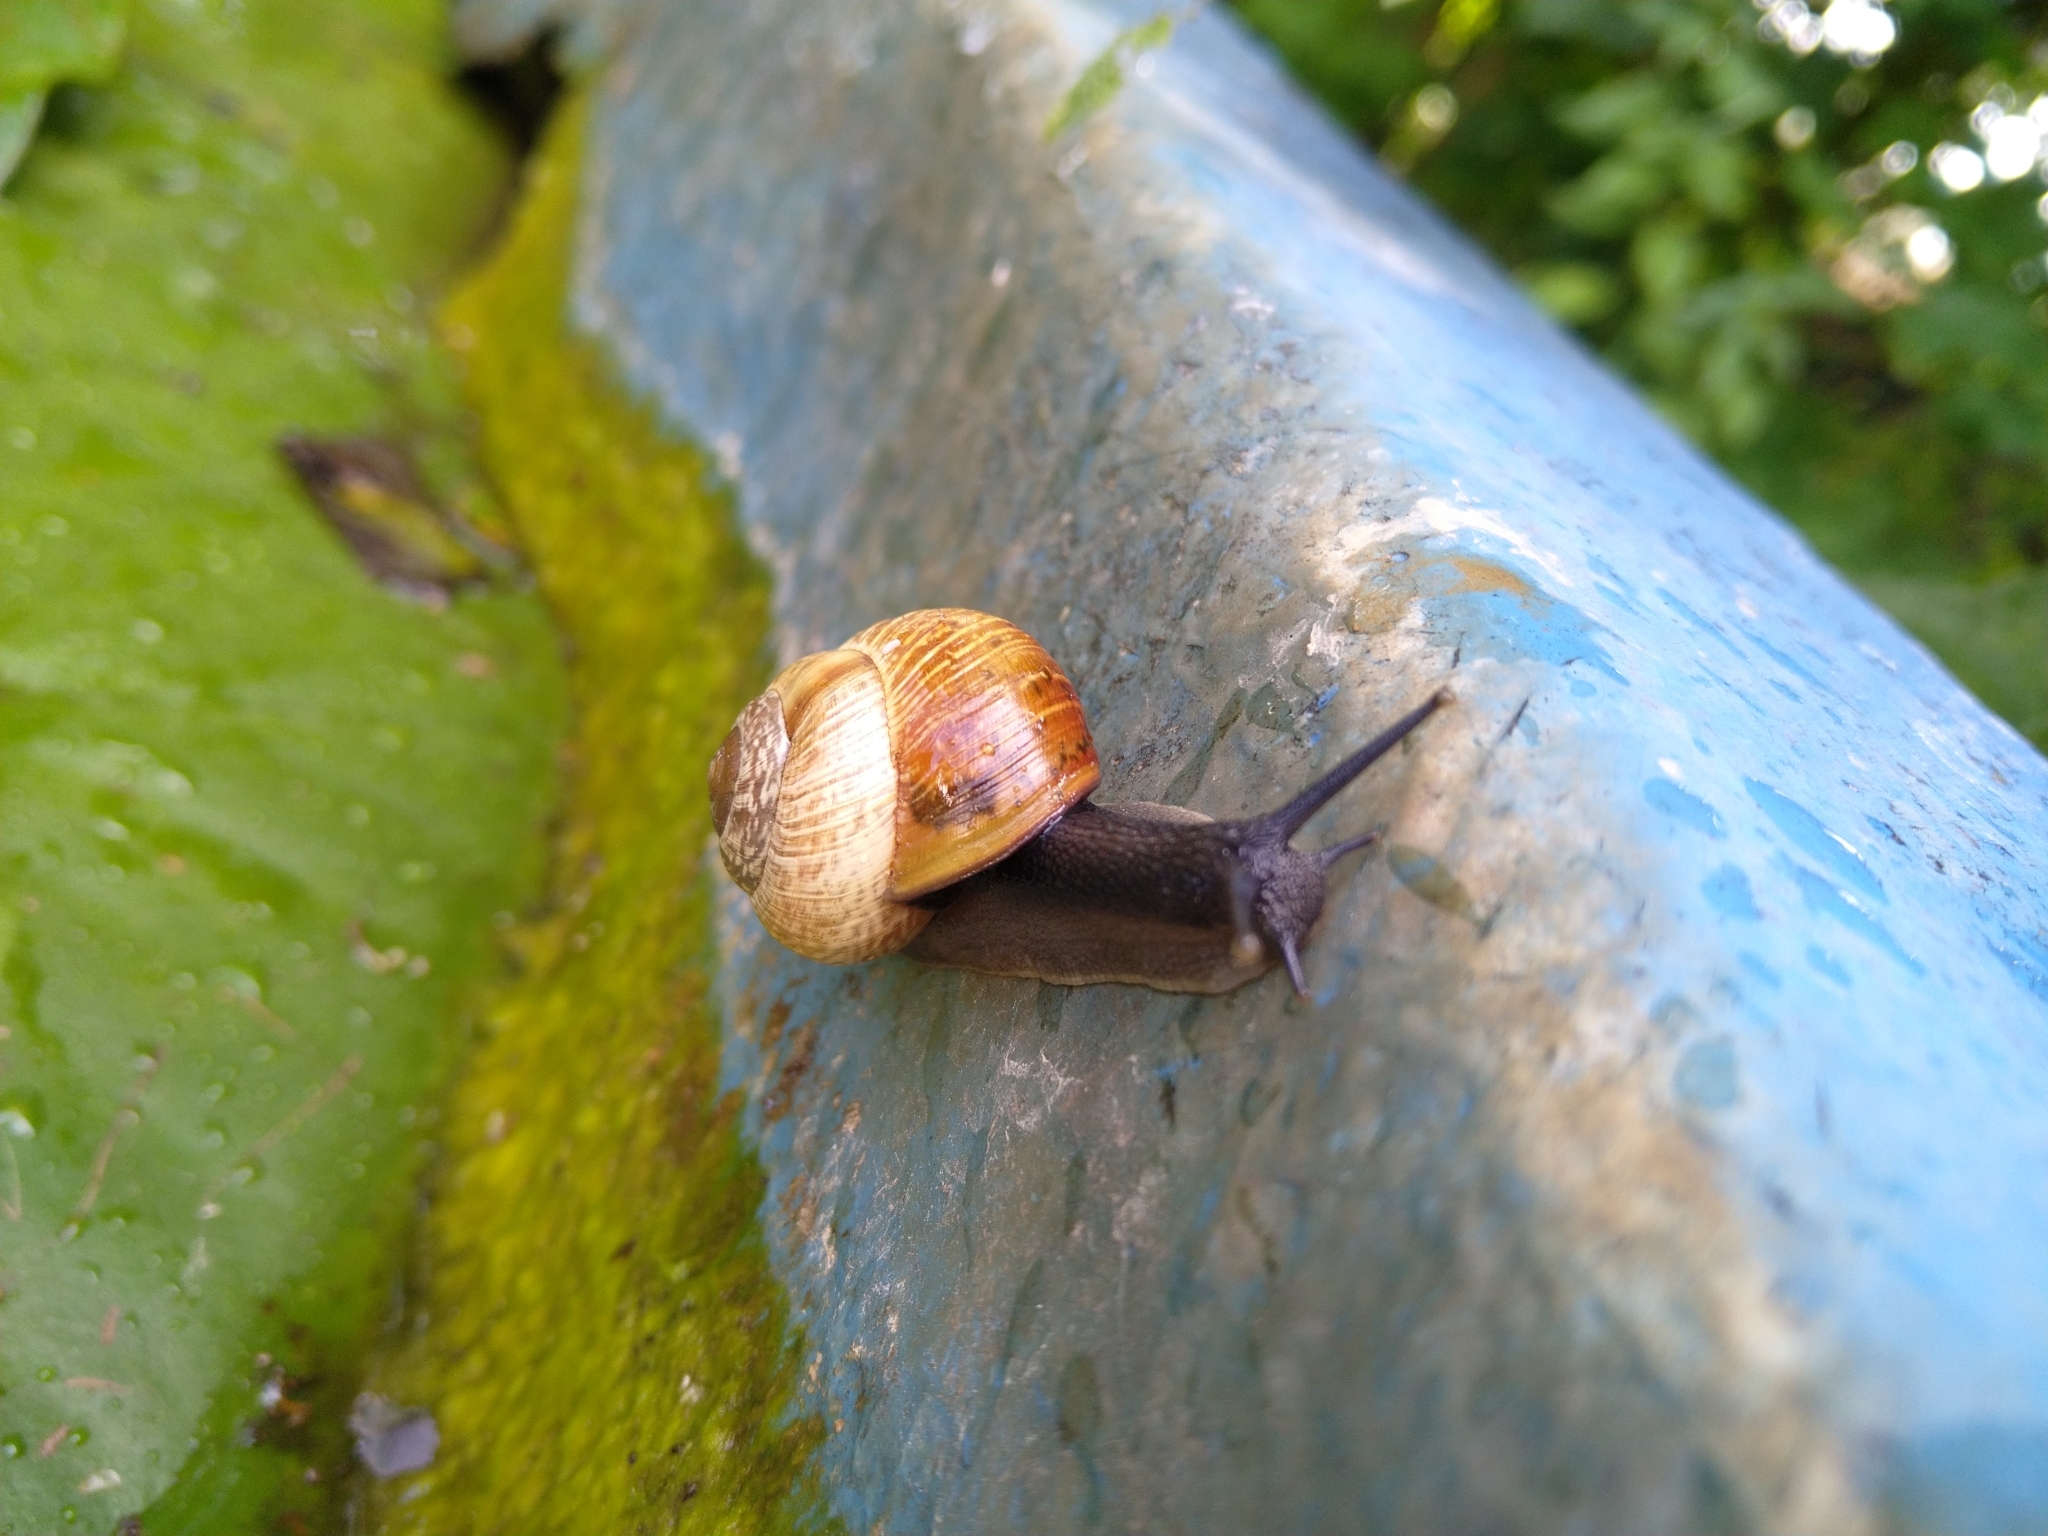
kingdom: Animalia
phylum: Mollusca
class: Gastropoda
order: Stylommatophora
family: Helicidae
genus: Arianta
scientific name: Arianta arbustorum
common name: Copse snail
